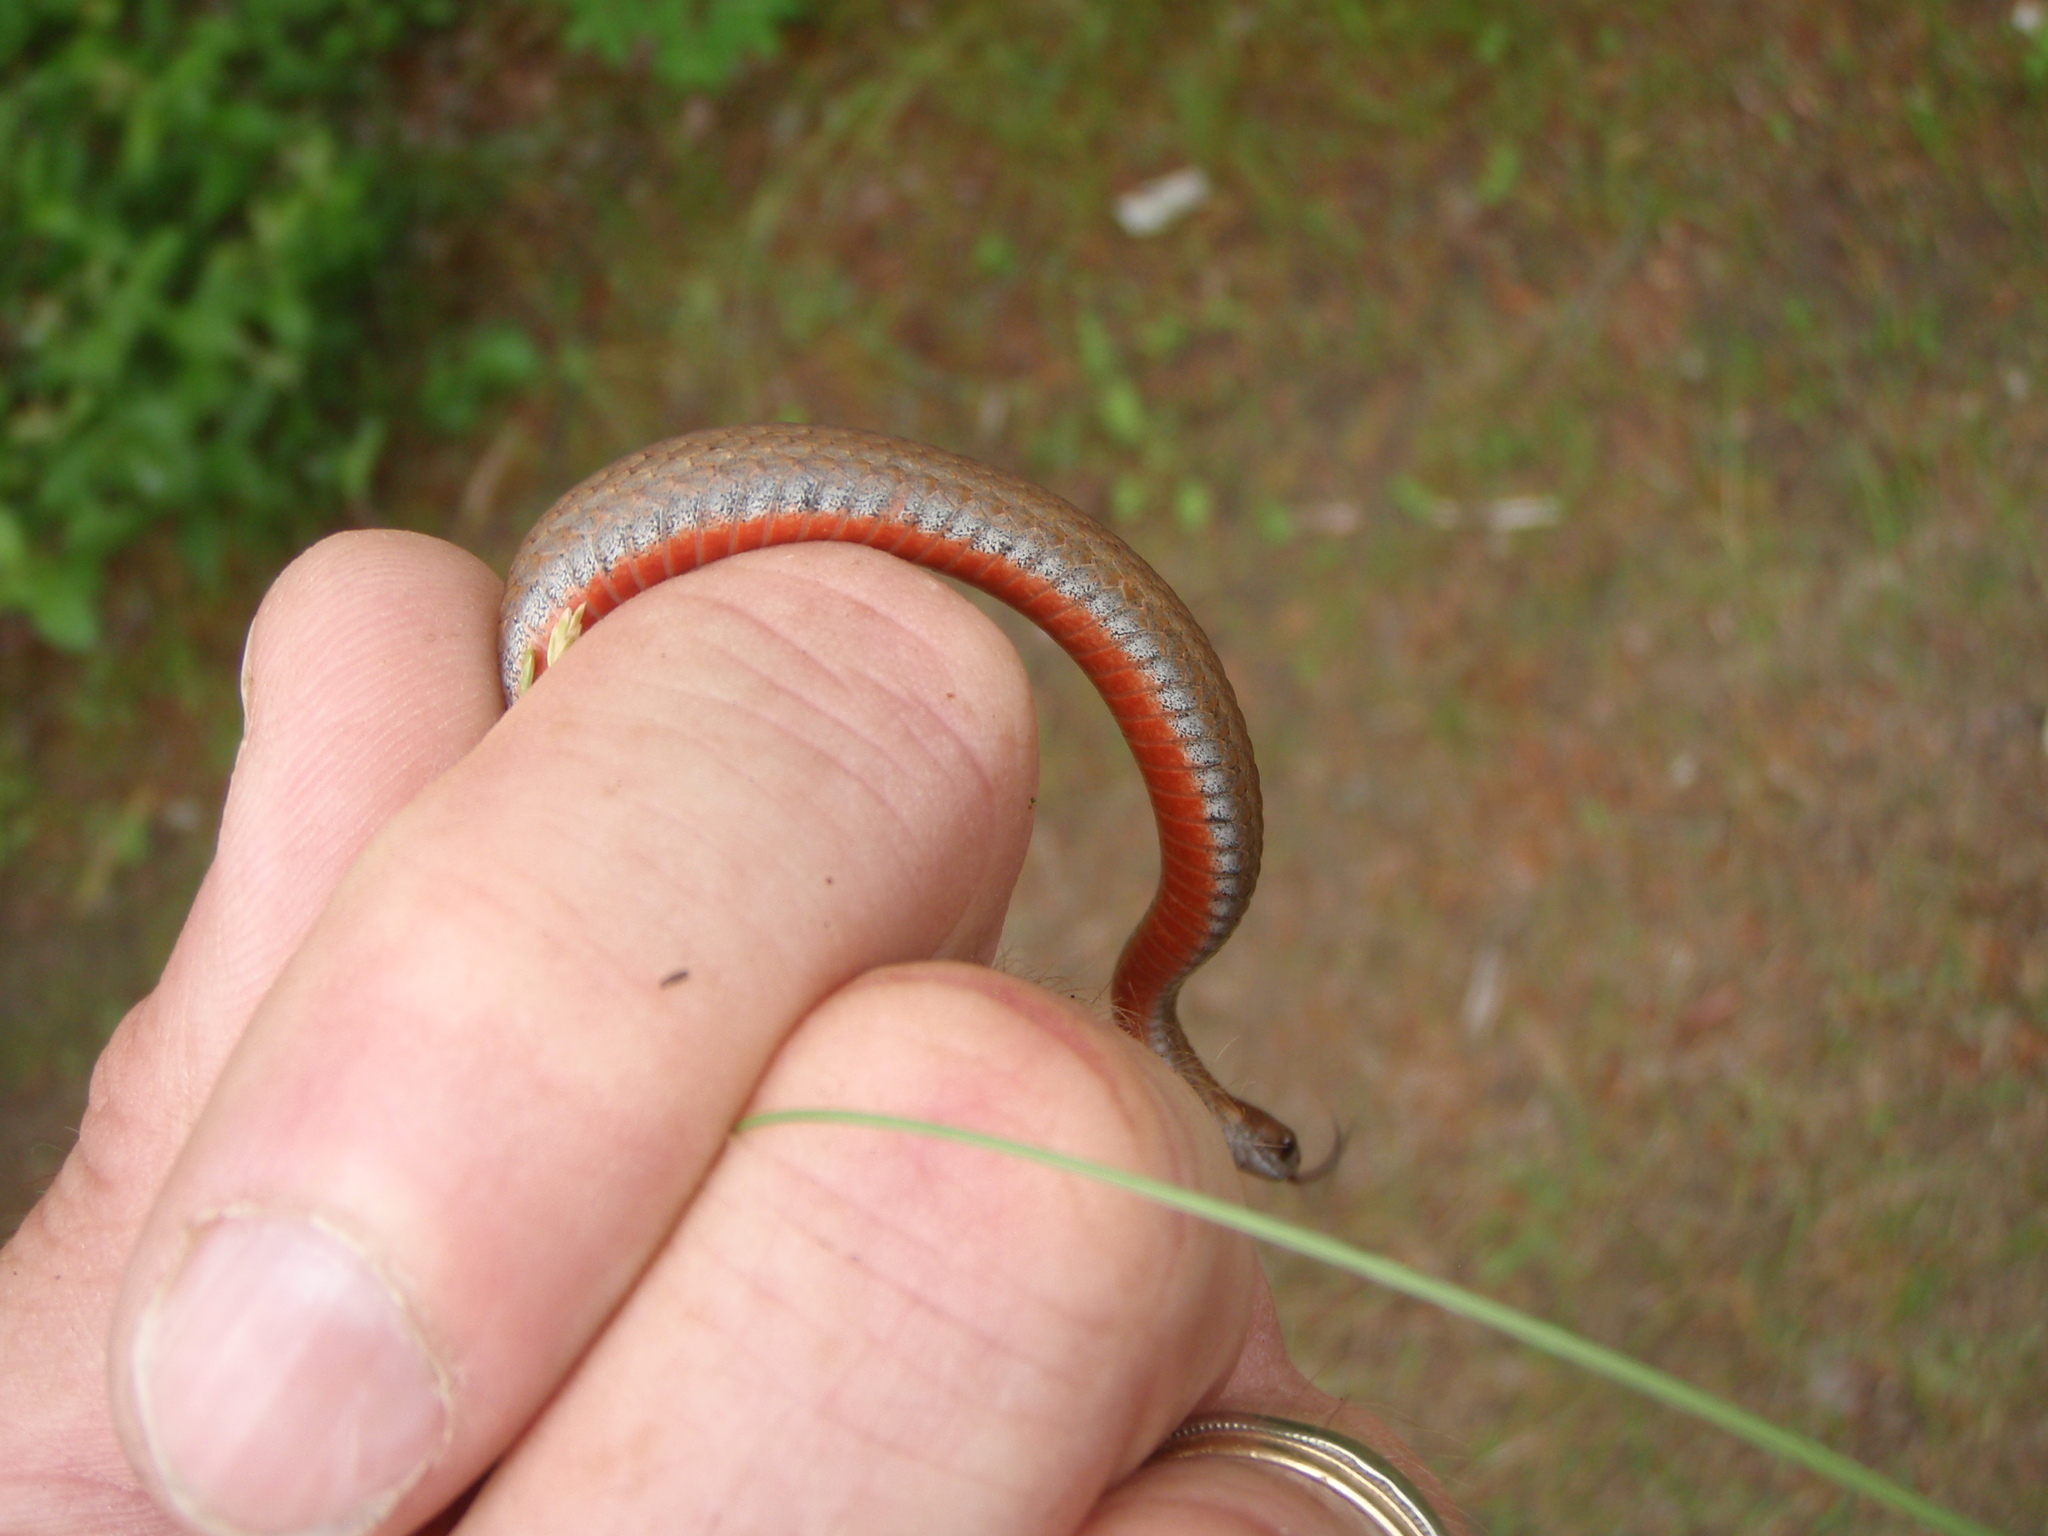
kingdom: Animalia
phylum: Chordata
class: Squamata
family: Colubridae
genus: Storeria
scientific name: Storeria occipitomaculata
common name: Redbelly snake
